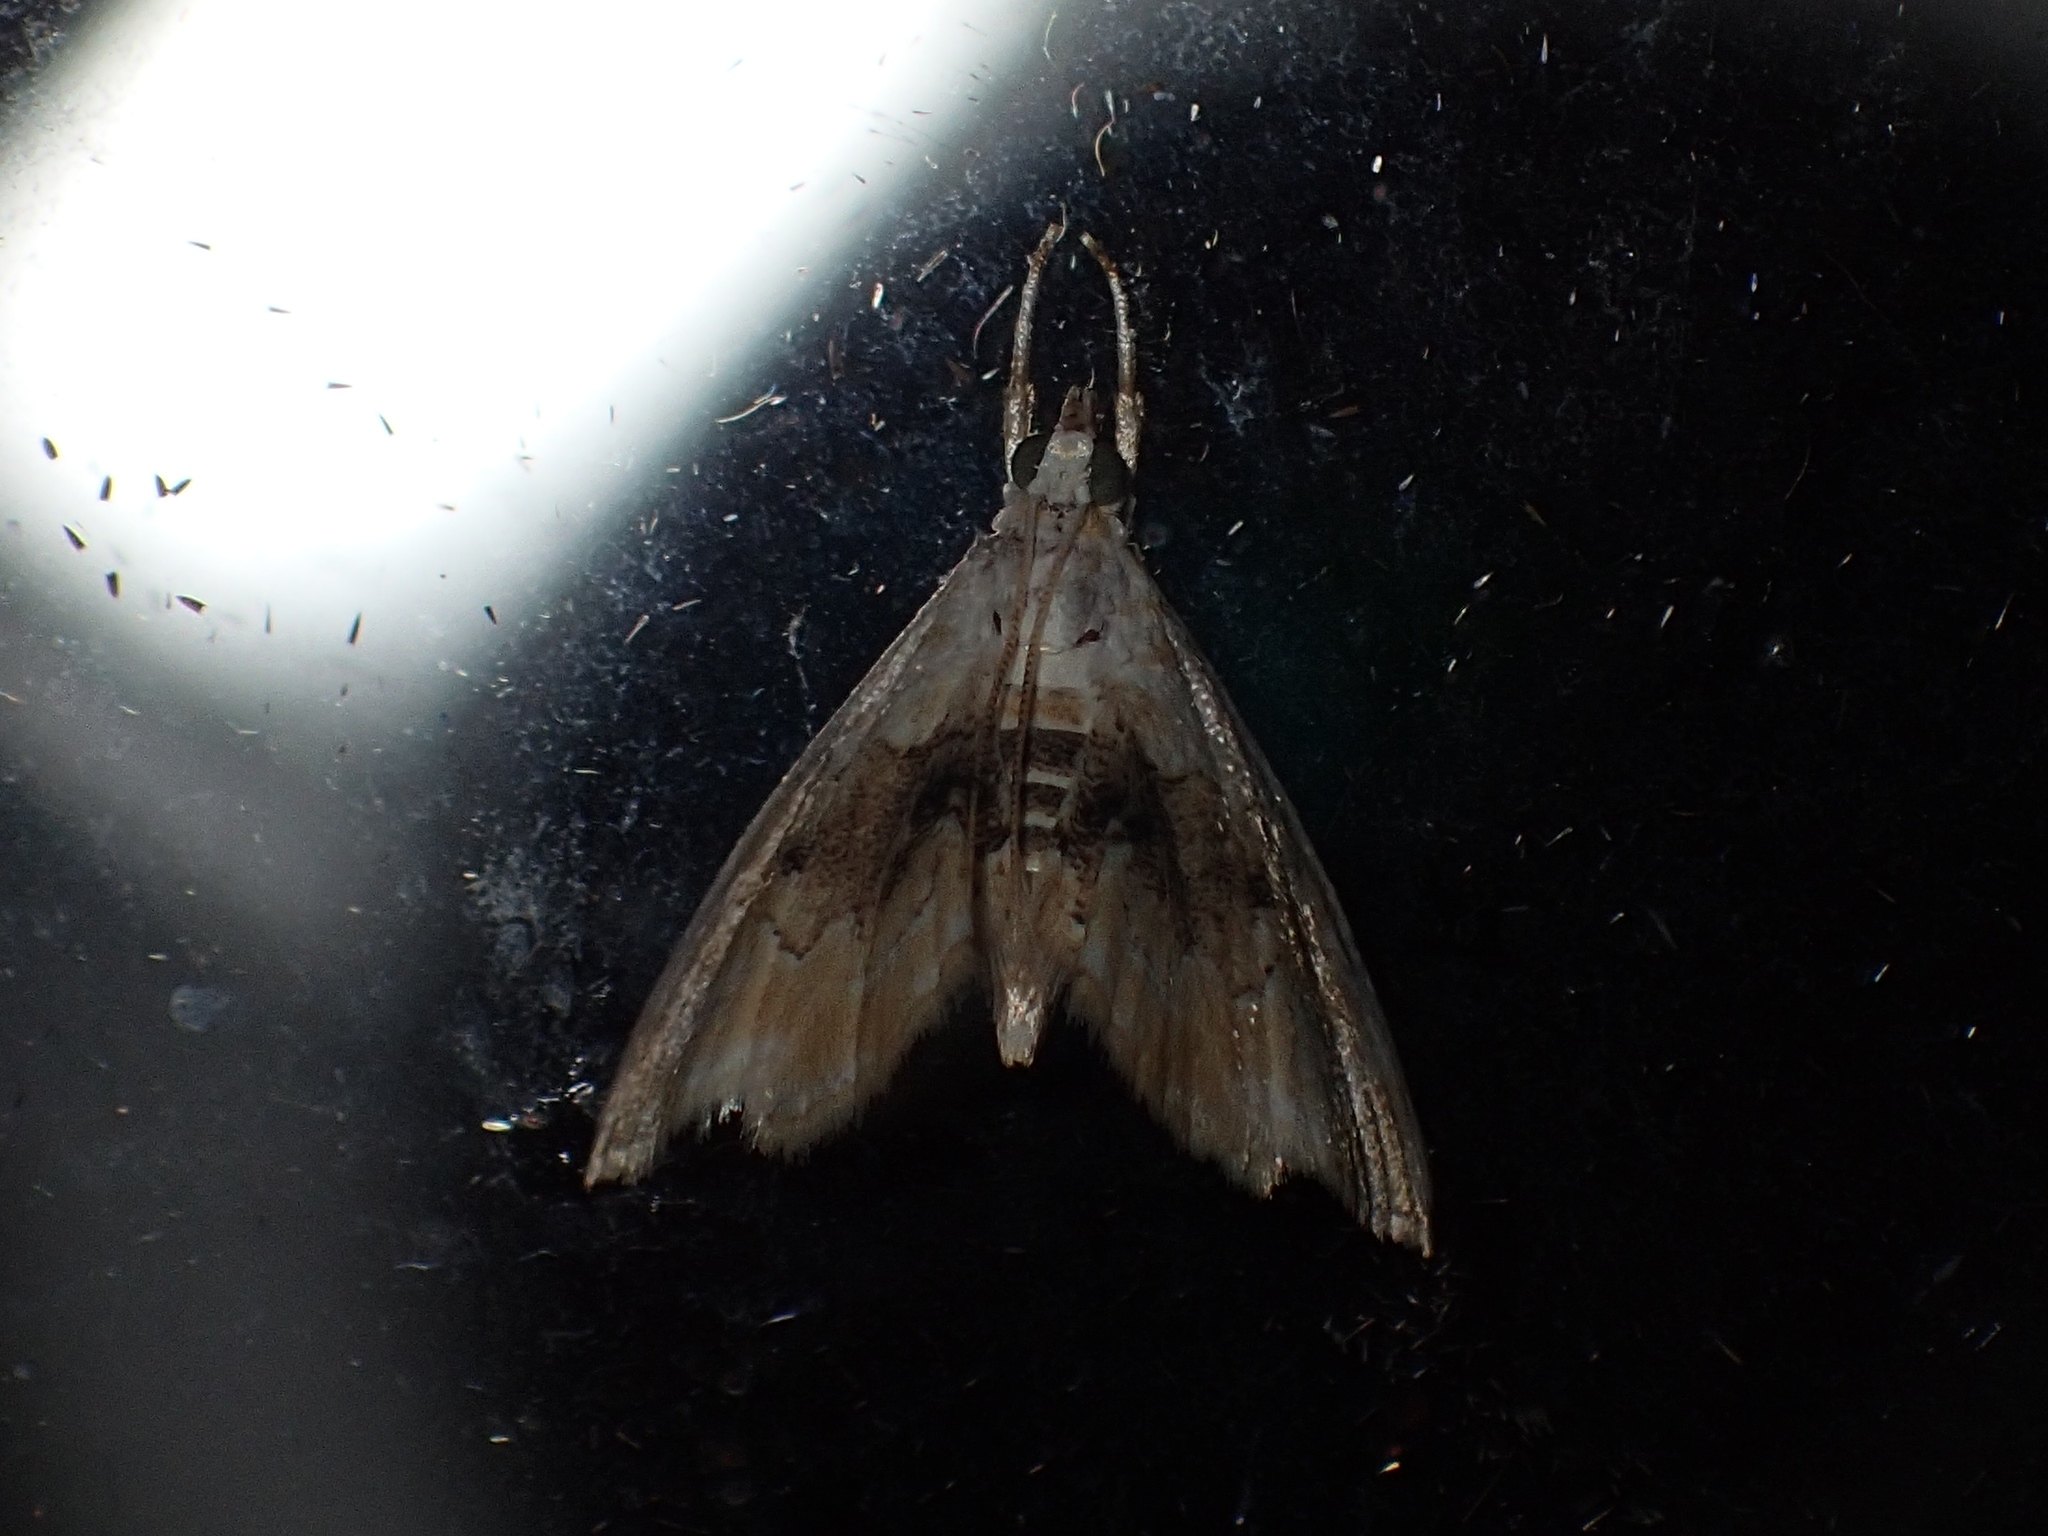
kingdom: Animalia
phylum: Arthropoda
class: Insecta
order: Lepidoptera
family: Crambidae
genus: Lipocosma
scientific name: Lipocosma sicalis
